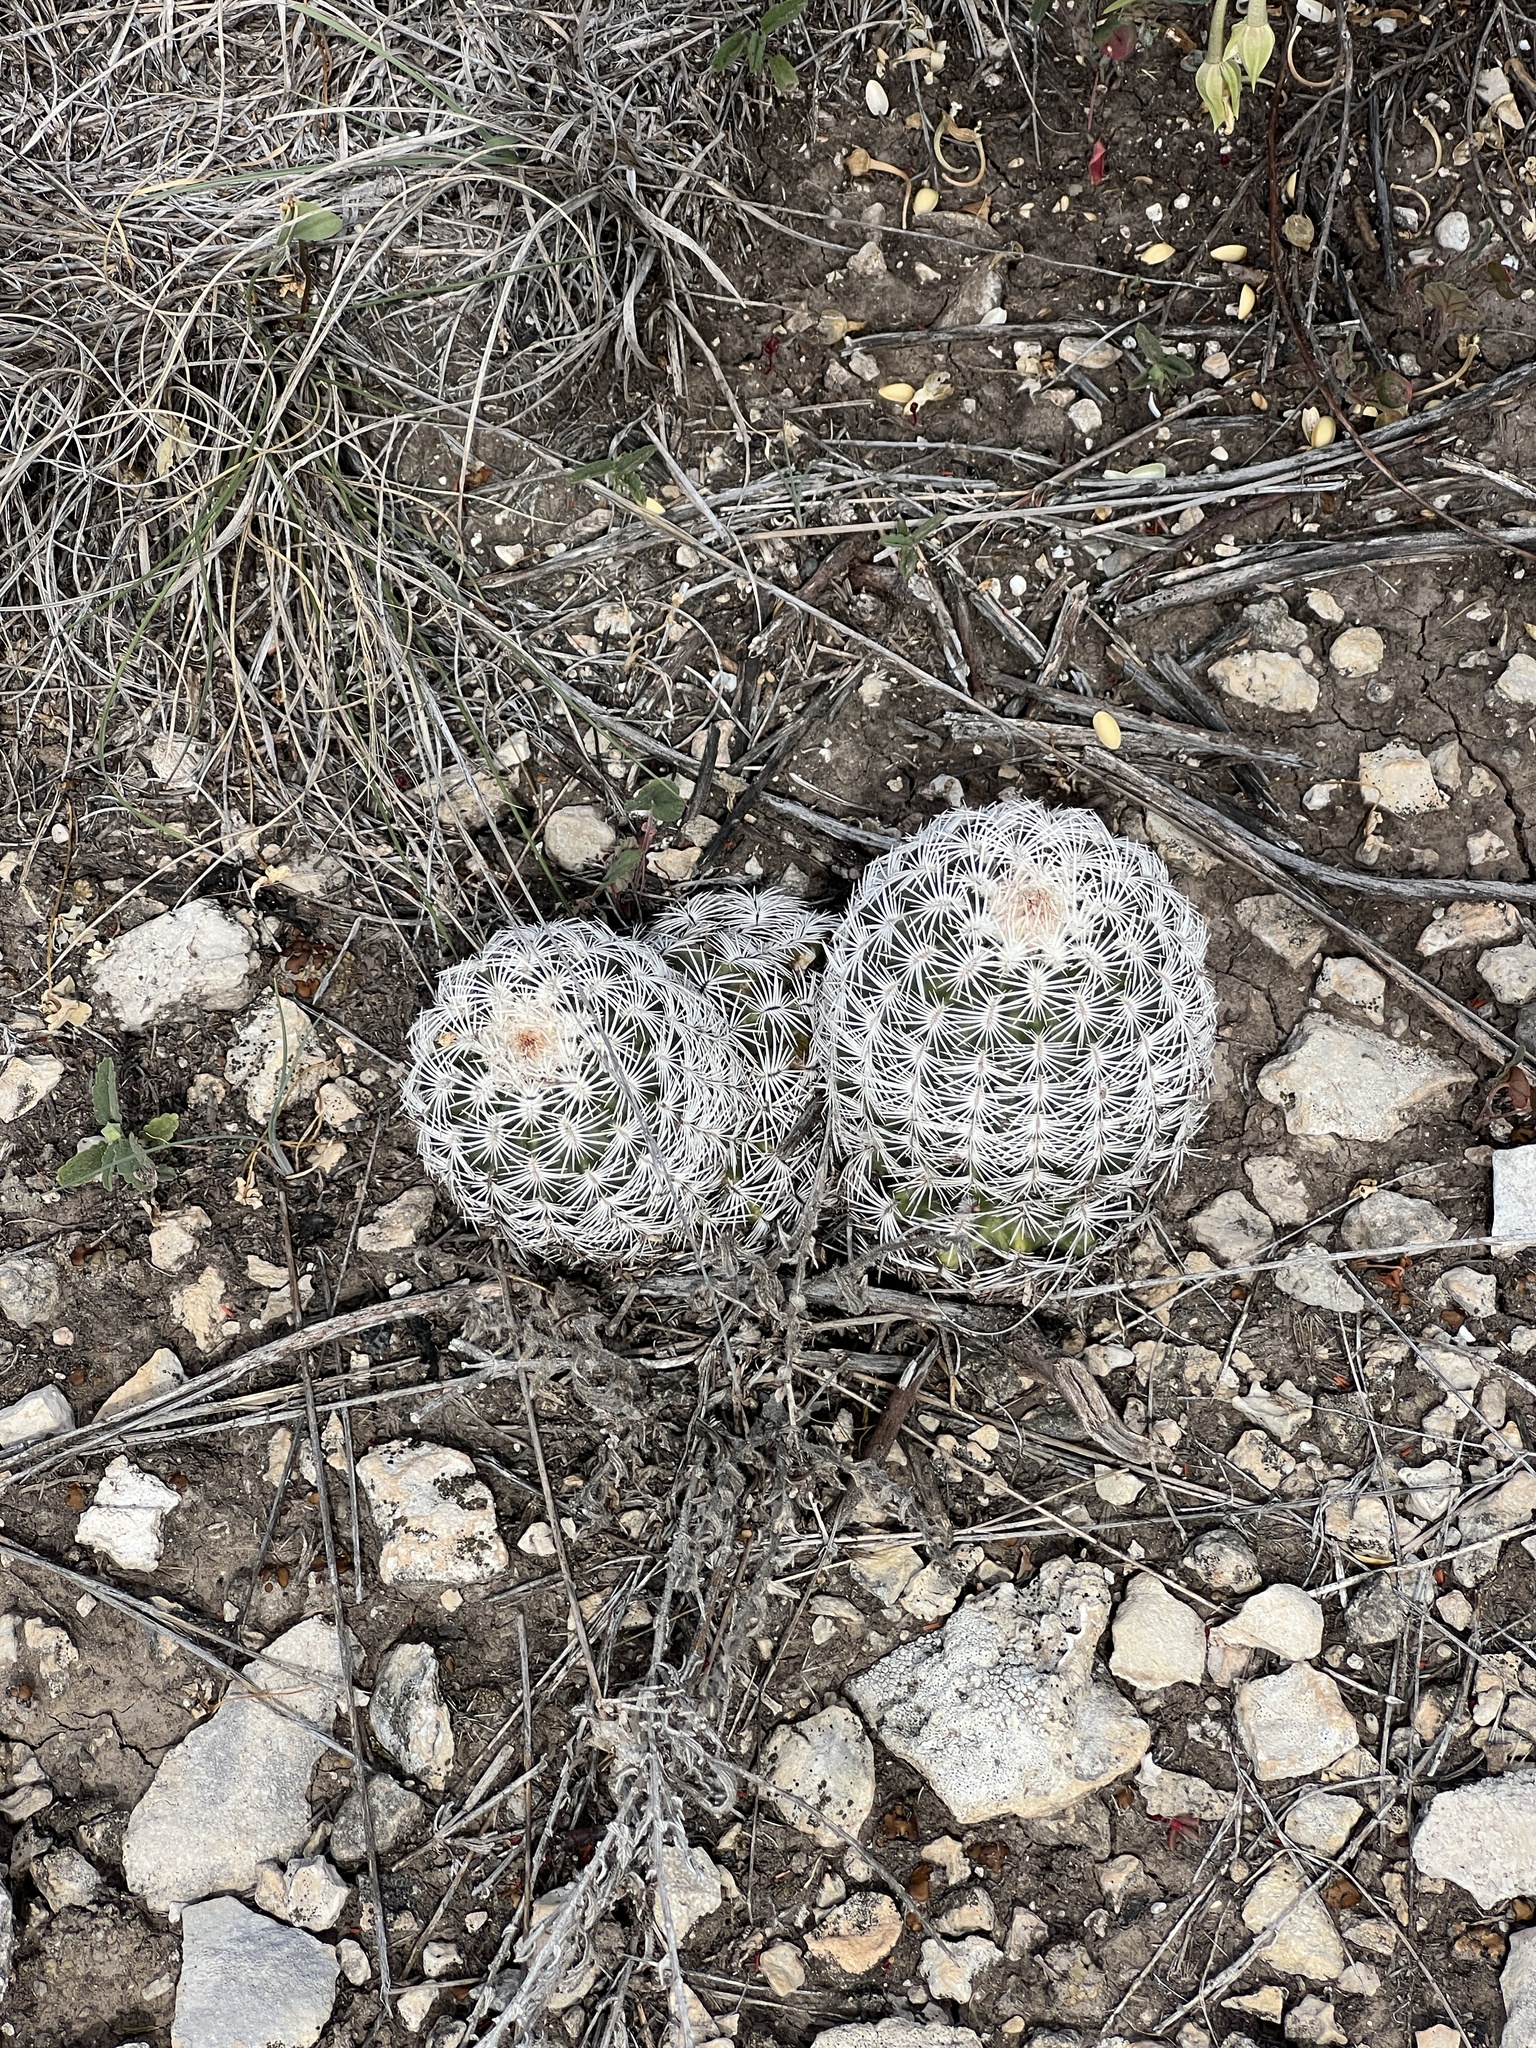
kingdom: Plantae
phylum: Tracheophyta
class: Magnoliopsida
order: Caryophyllales
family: Cactaceae
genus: Echinocereus
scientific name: Echinocereus reichenbachii
